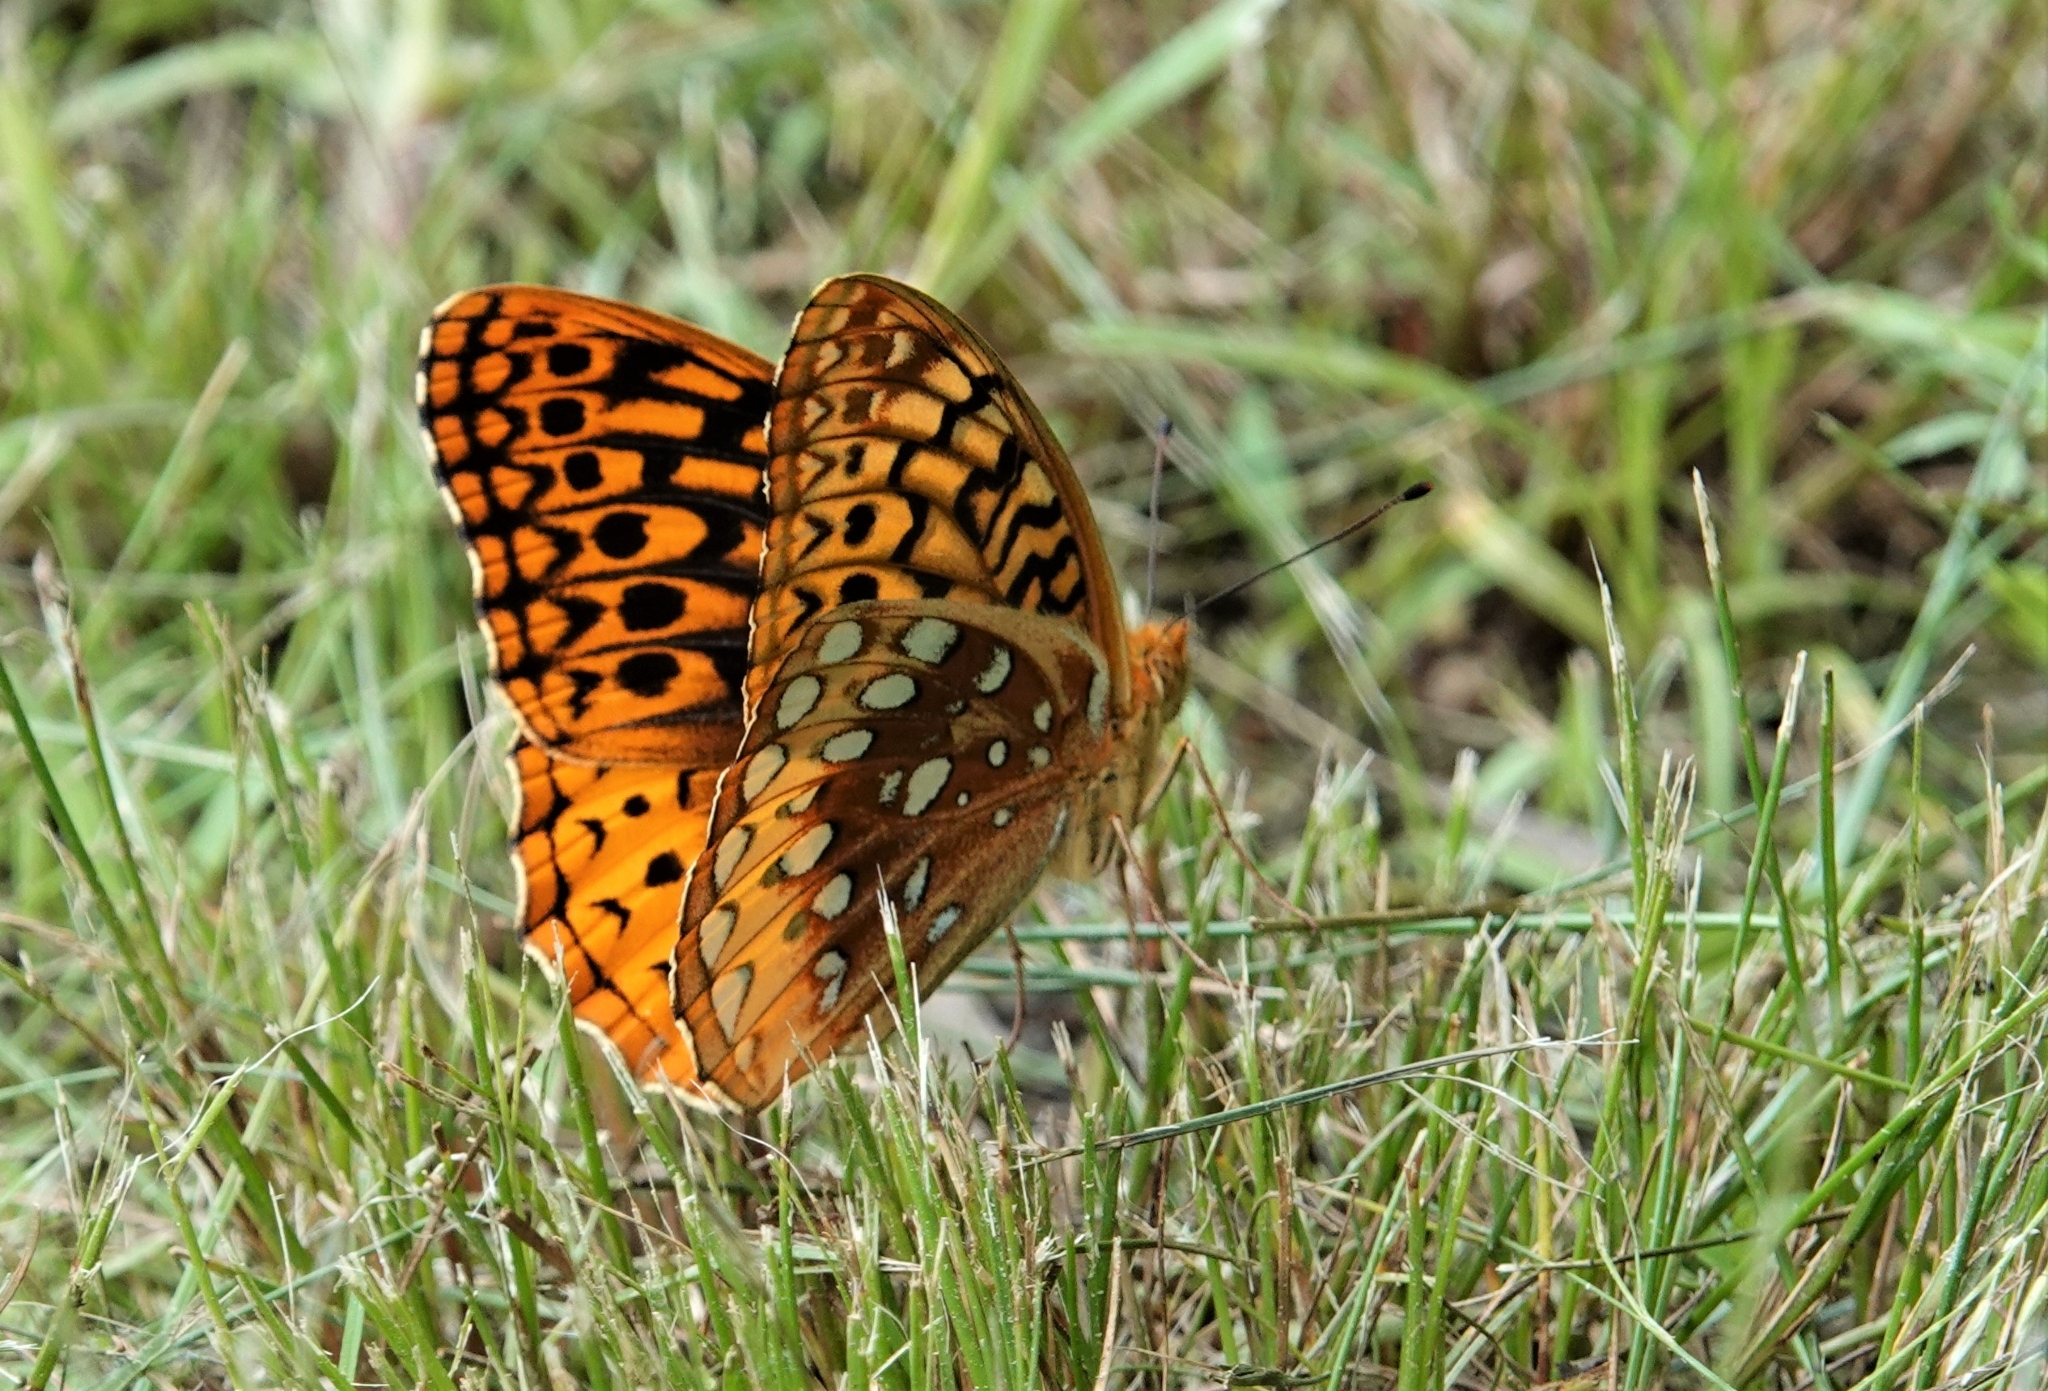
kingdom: Animalia
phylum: Arthropoda
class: Insecta
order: Lepidoptera
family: Nymphalidae
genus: Speyeria
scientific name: Speyeria cybele
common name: Great spangled fritillary
